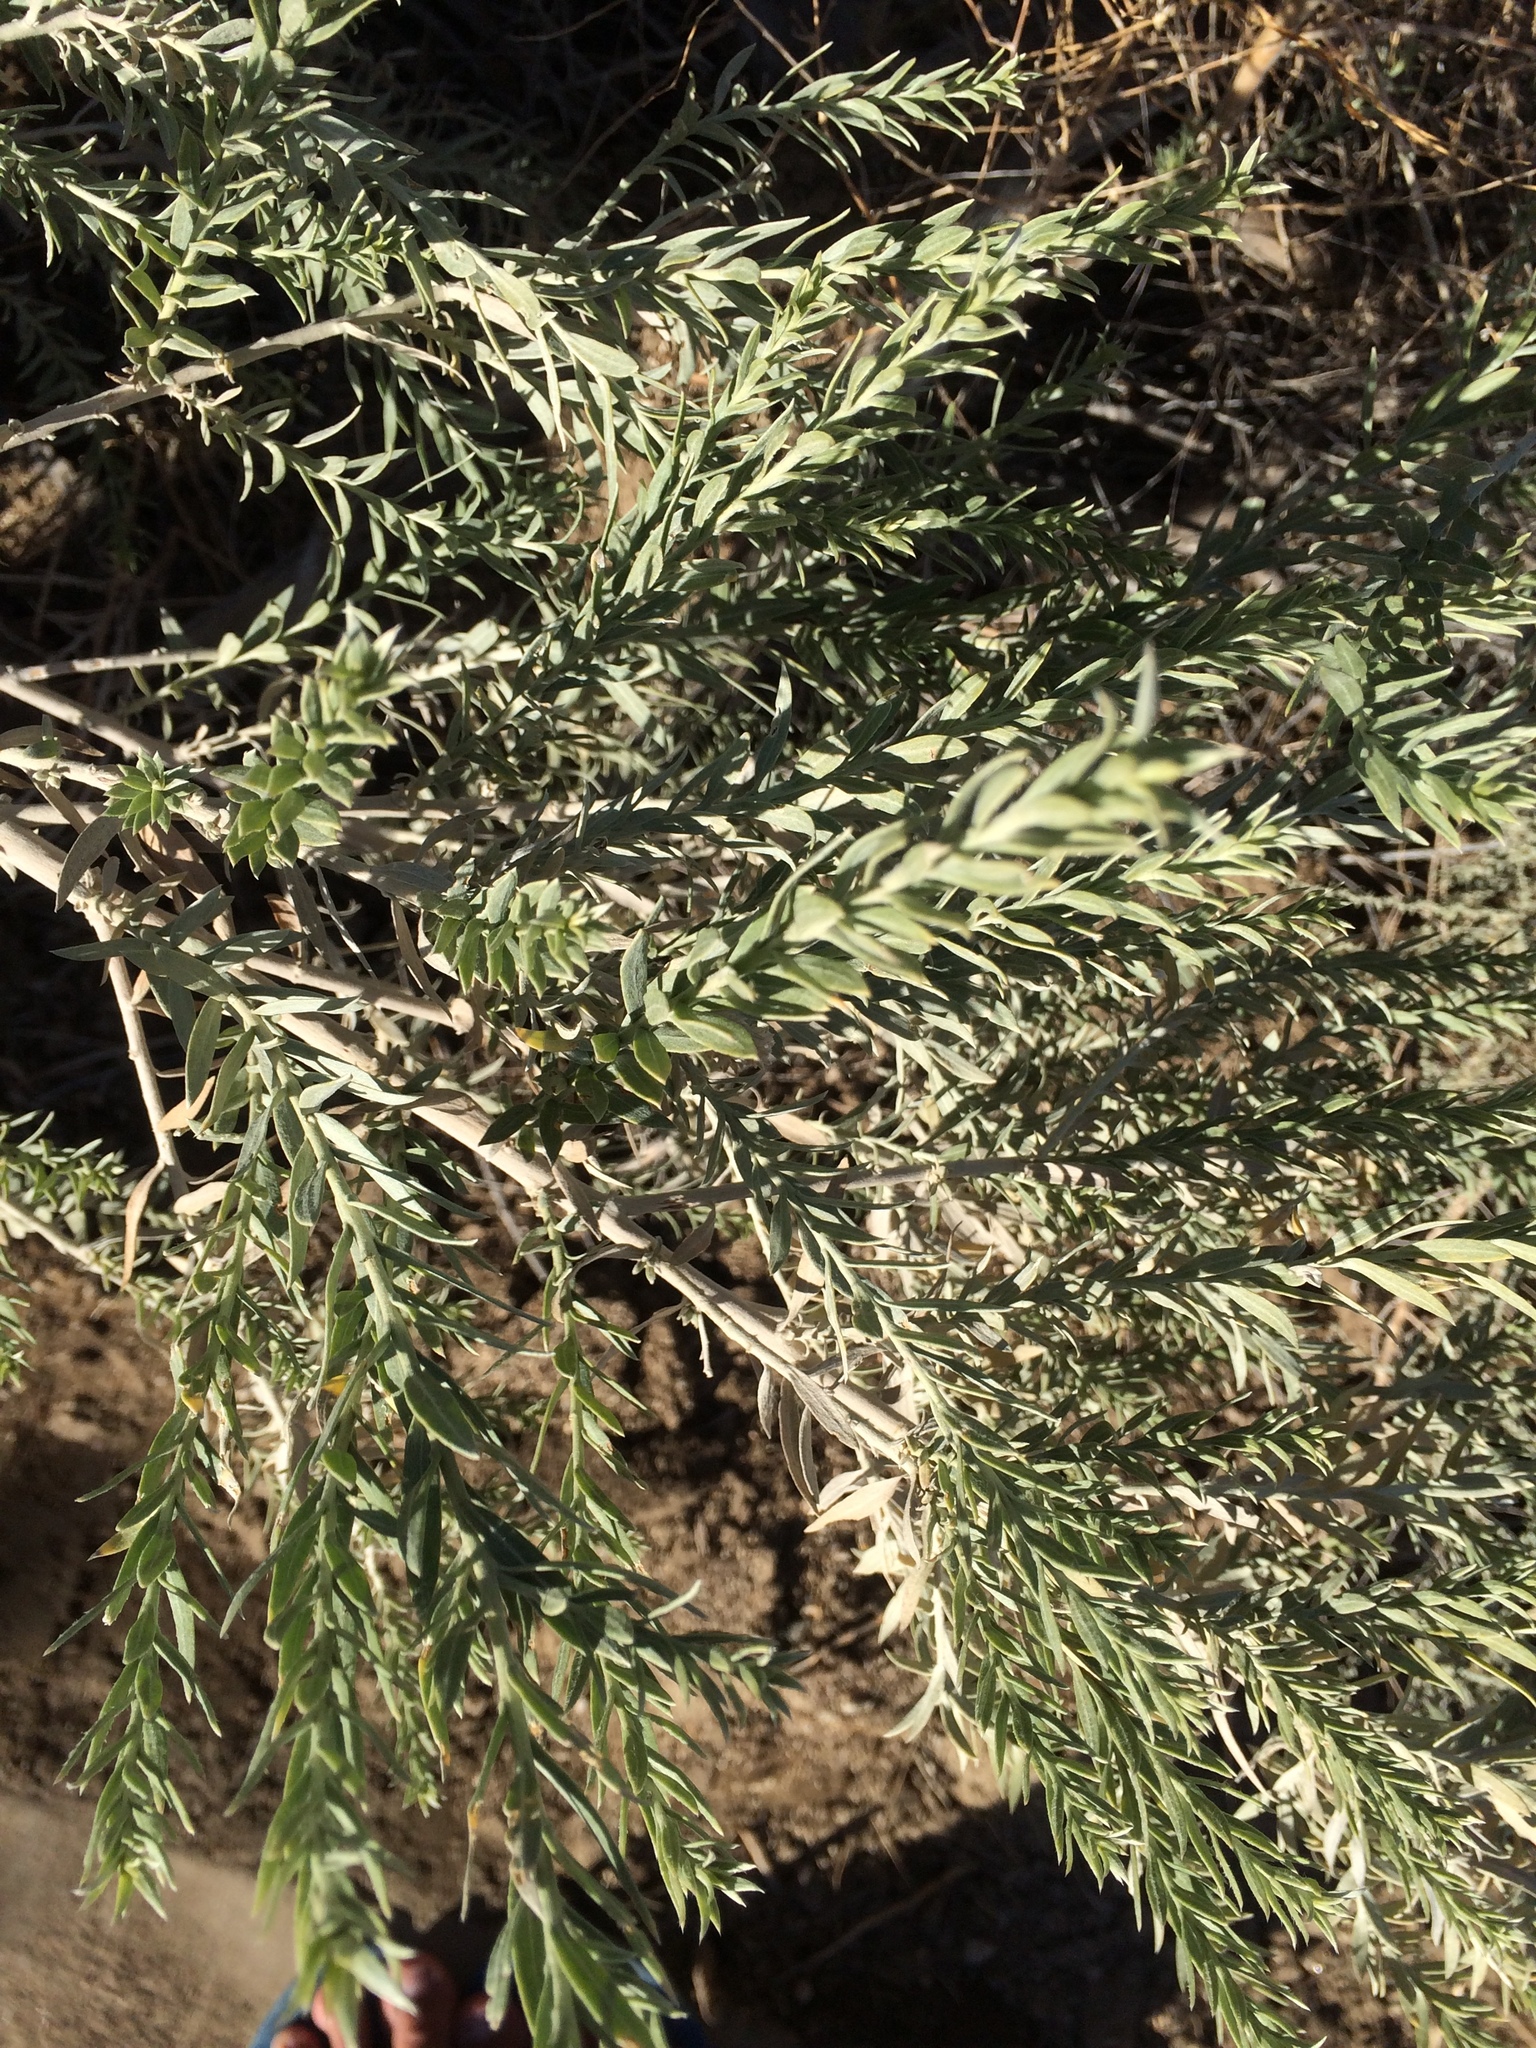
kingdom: Plantae
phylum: Tracheophyta
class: Magnoliopsida
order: Asterales
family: Asteraceae
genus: Pluchea
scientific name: Pluchea sericea
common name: Arrow-weed
